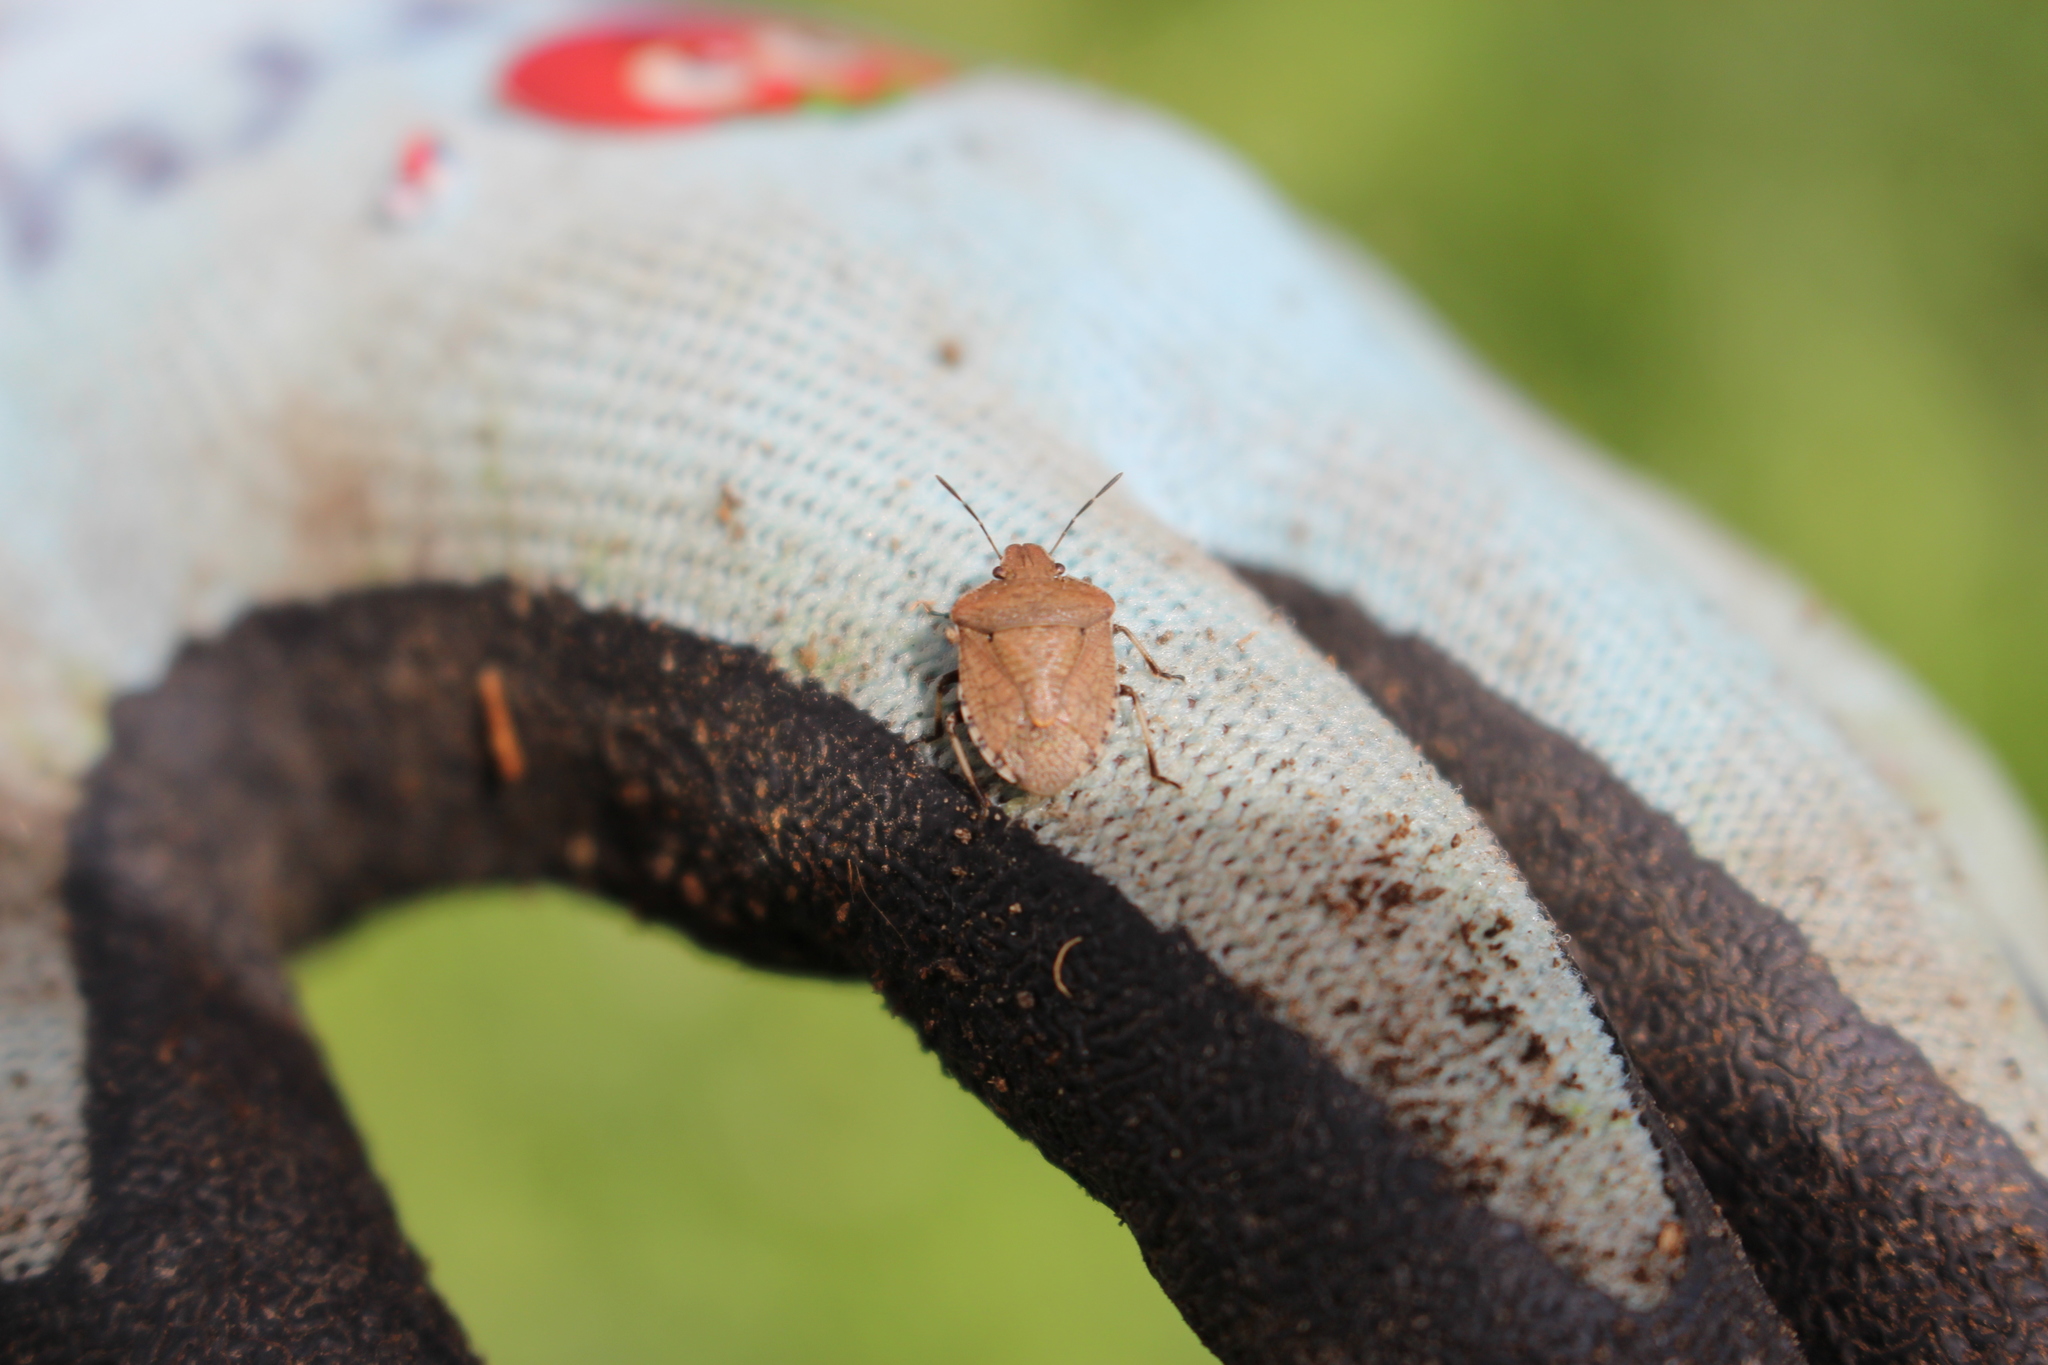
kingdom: Animalia
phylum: Arthropoda
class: Insecta
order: Hemiptera
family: Pentatomidae
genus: Dictyotus
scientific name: Dictyotus caenosus
